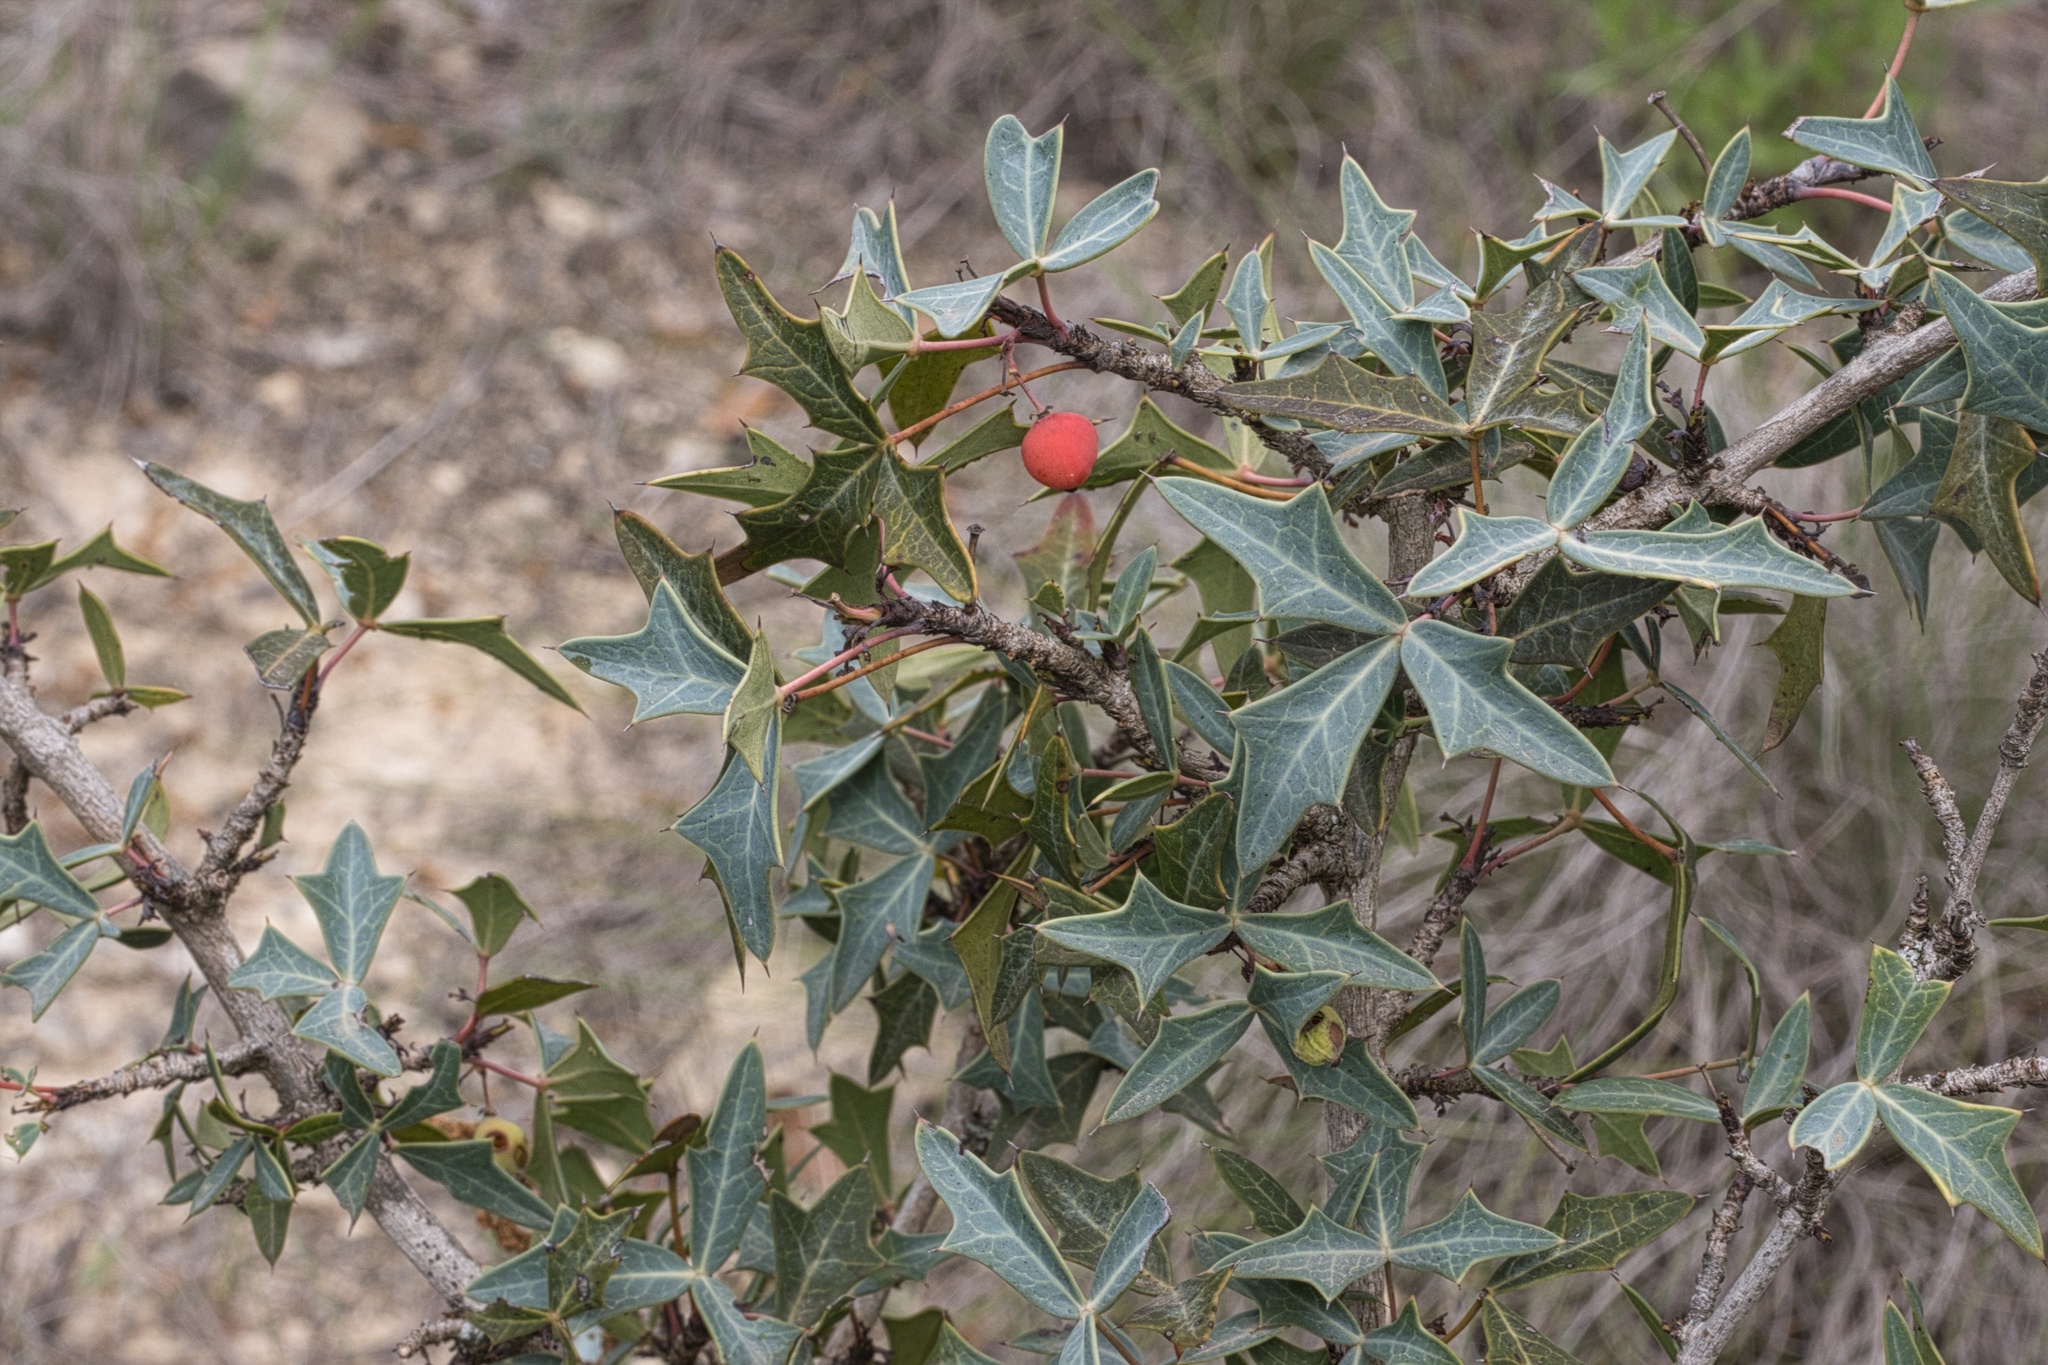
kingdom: Plantae
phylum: Tracheophyta
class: Magnoliopsida
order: Ranunculales
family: Berberidaceae
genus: Alloberberis
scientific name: Alloberberis trifoliolata
